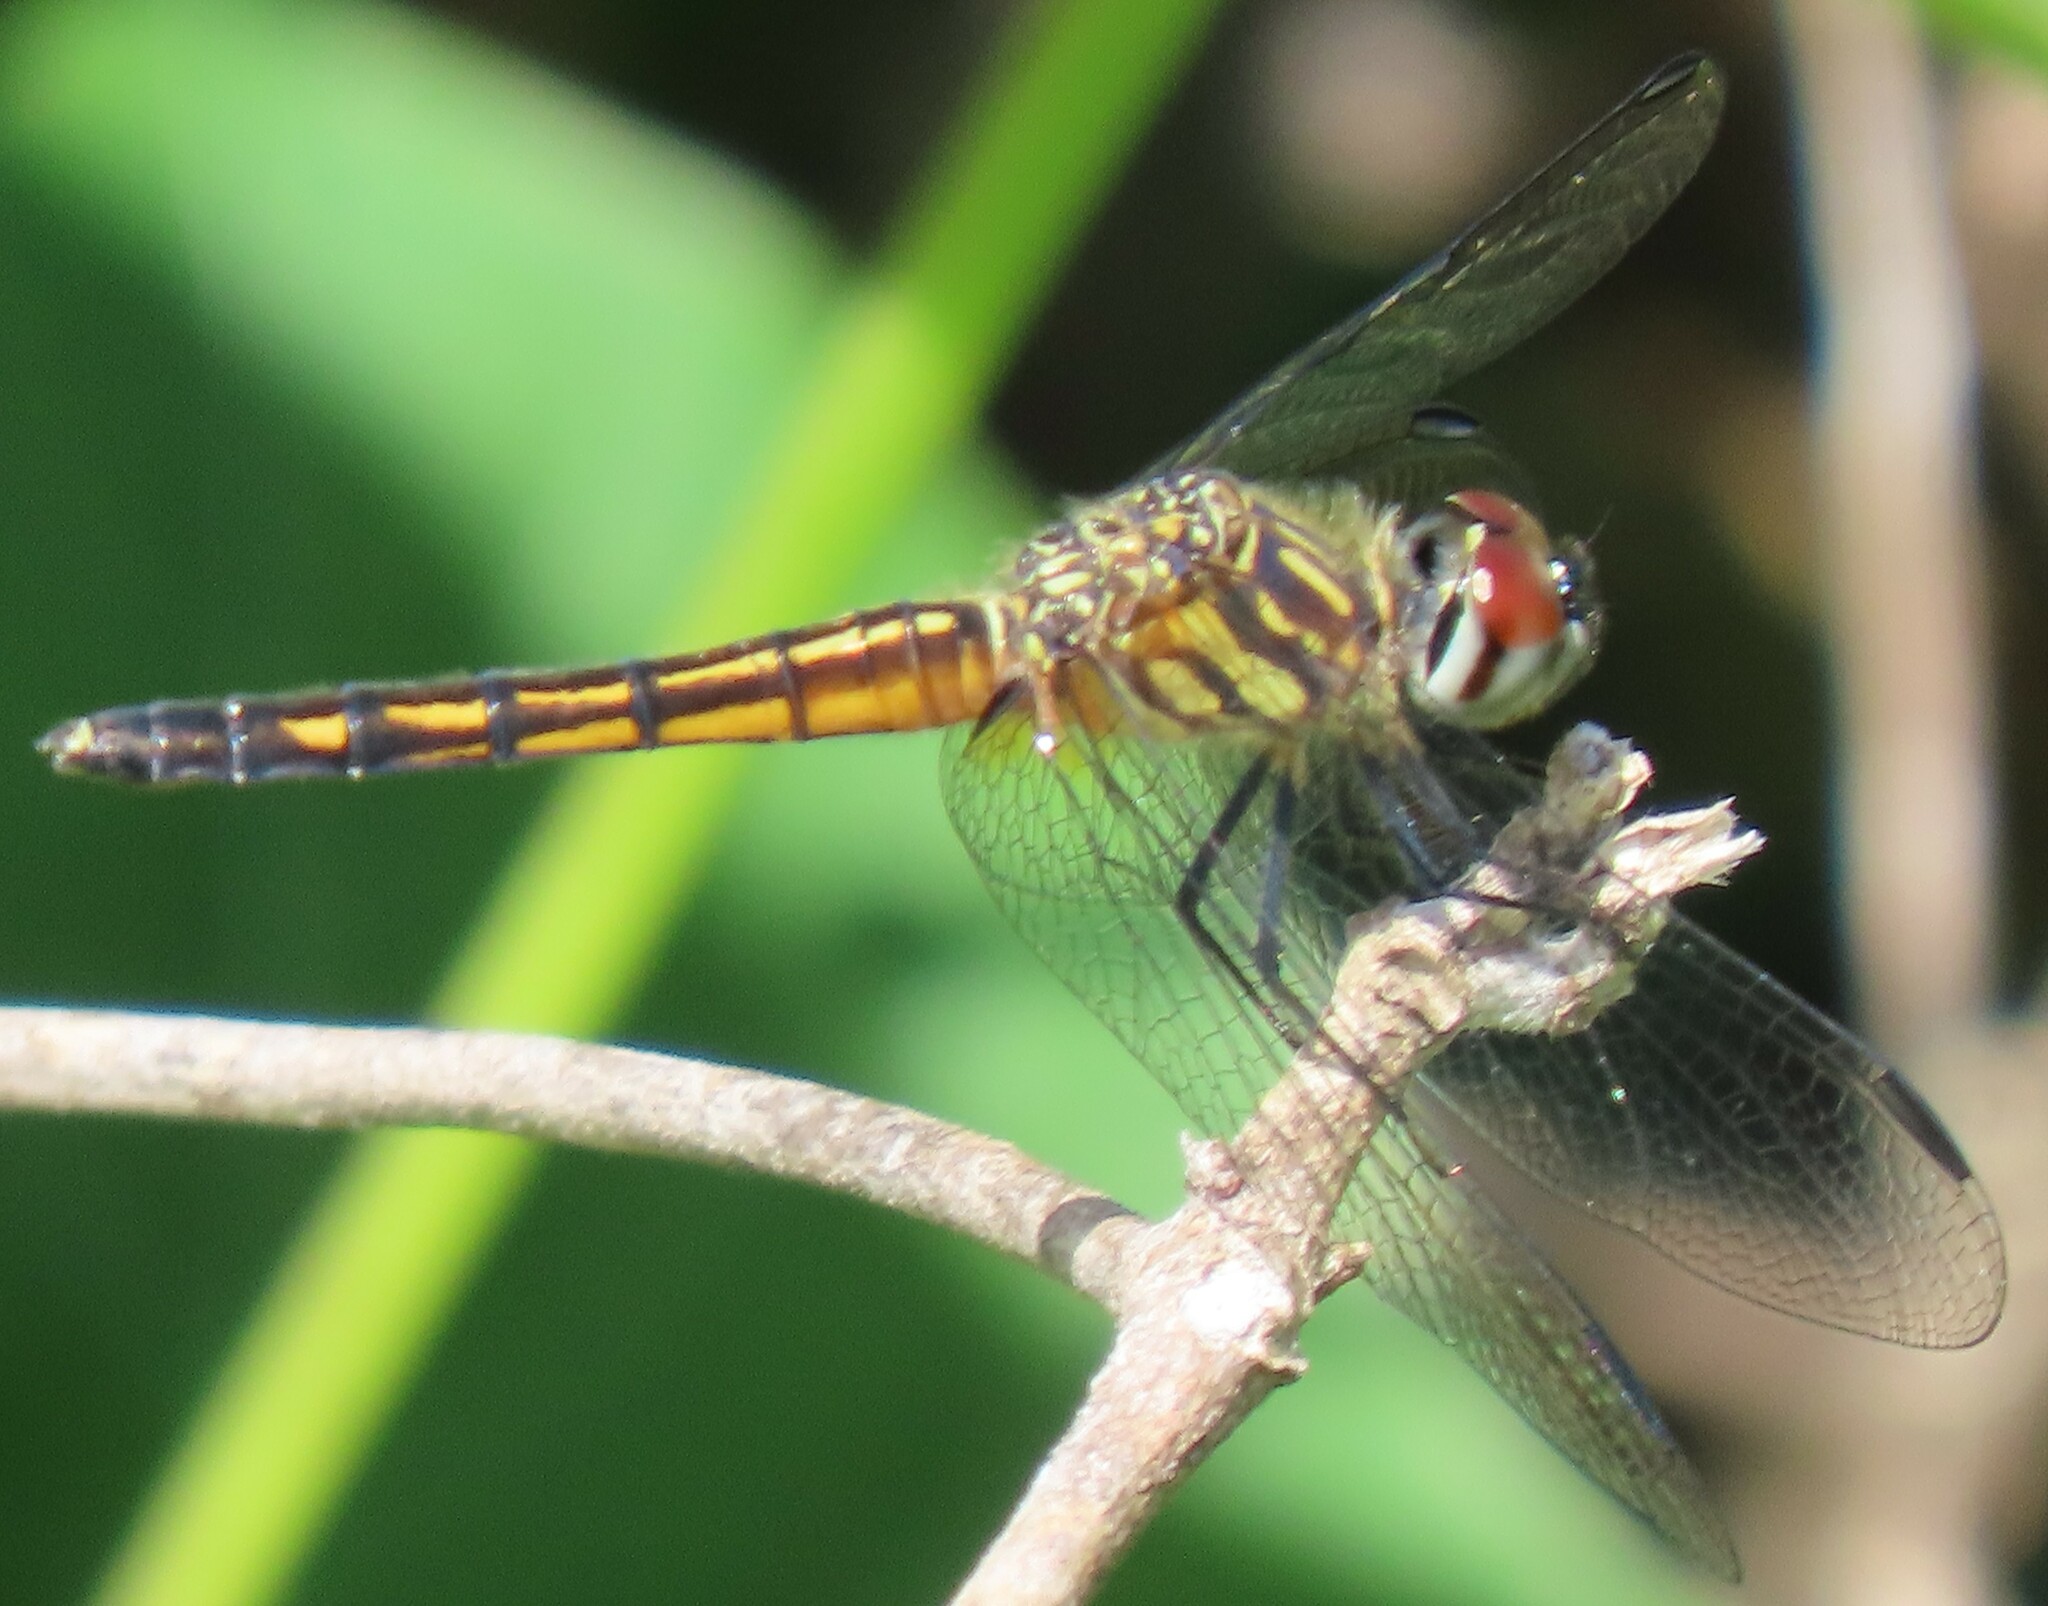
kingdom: Animalia
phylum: Arthropoda
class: Insecta
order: Odonata
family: Libellulidae
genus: Pachydiplax
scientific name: Pachydiplax longipennis
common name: Blue dasher
